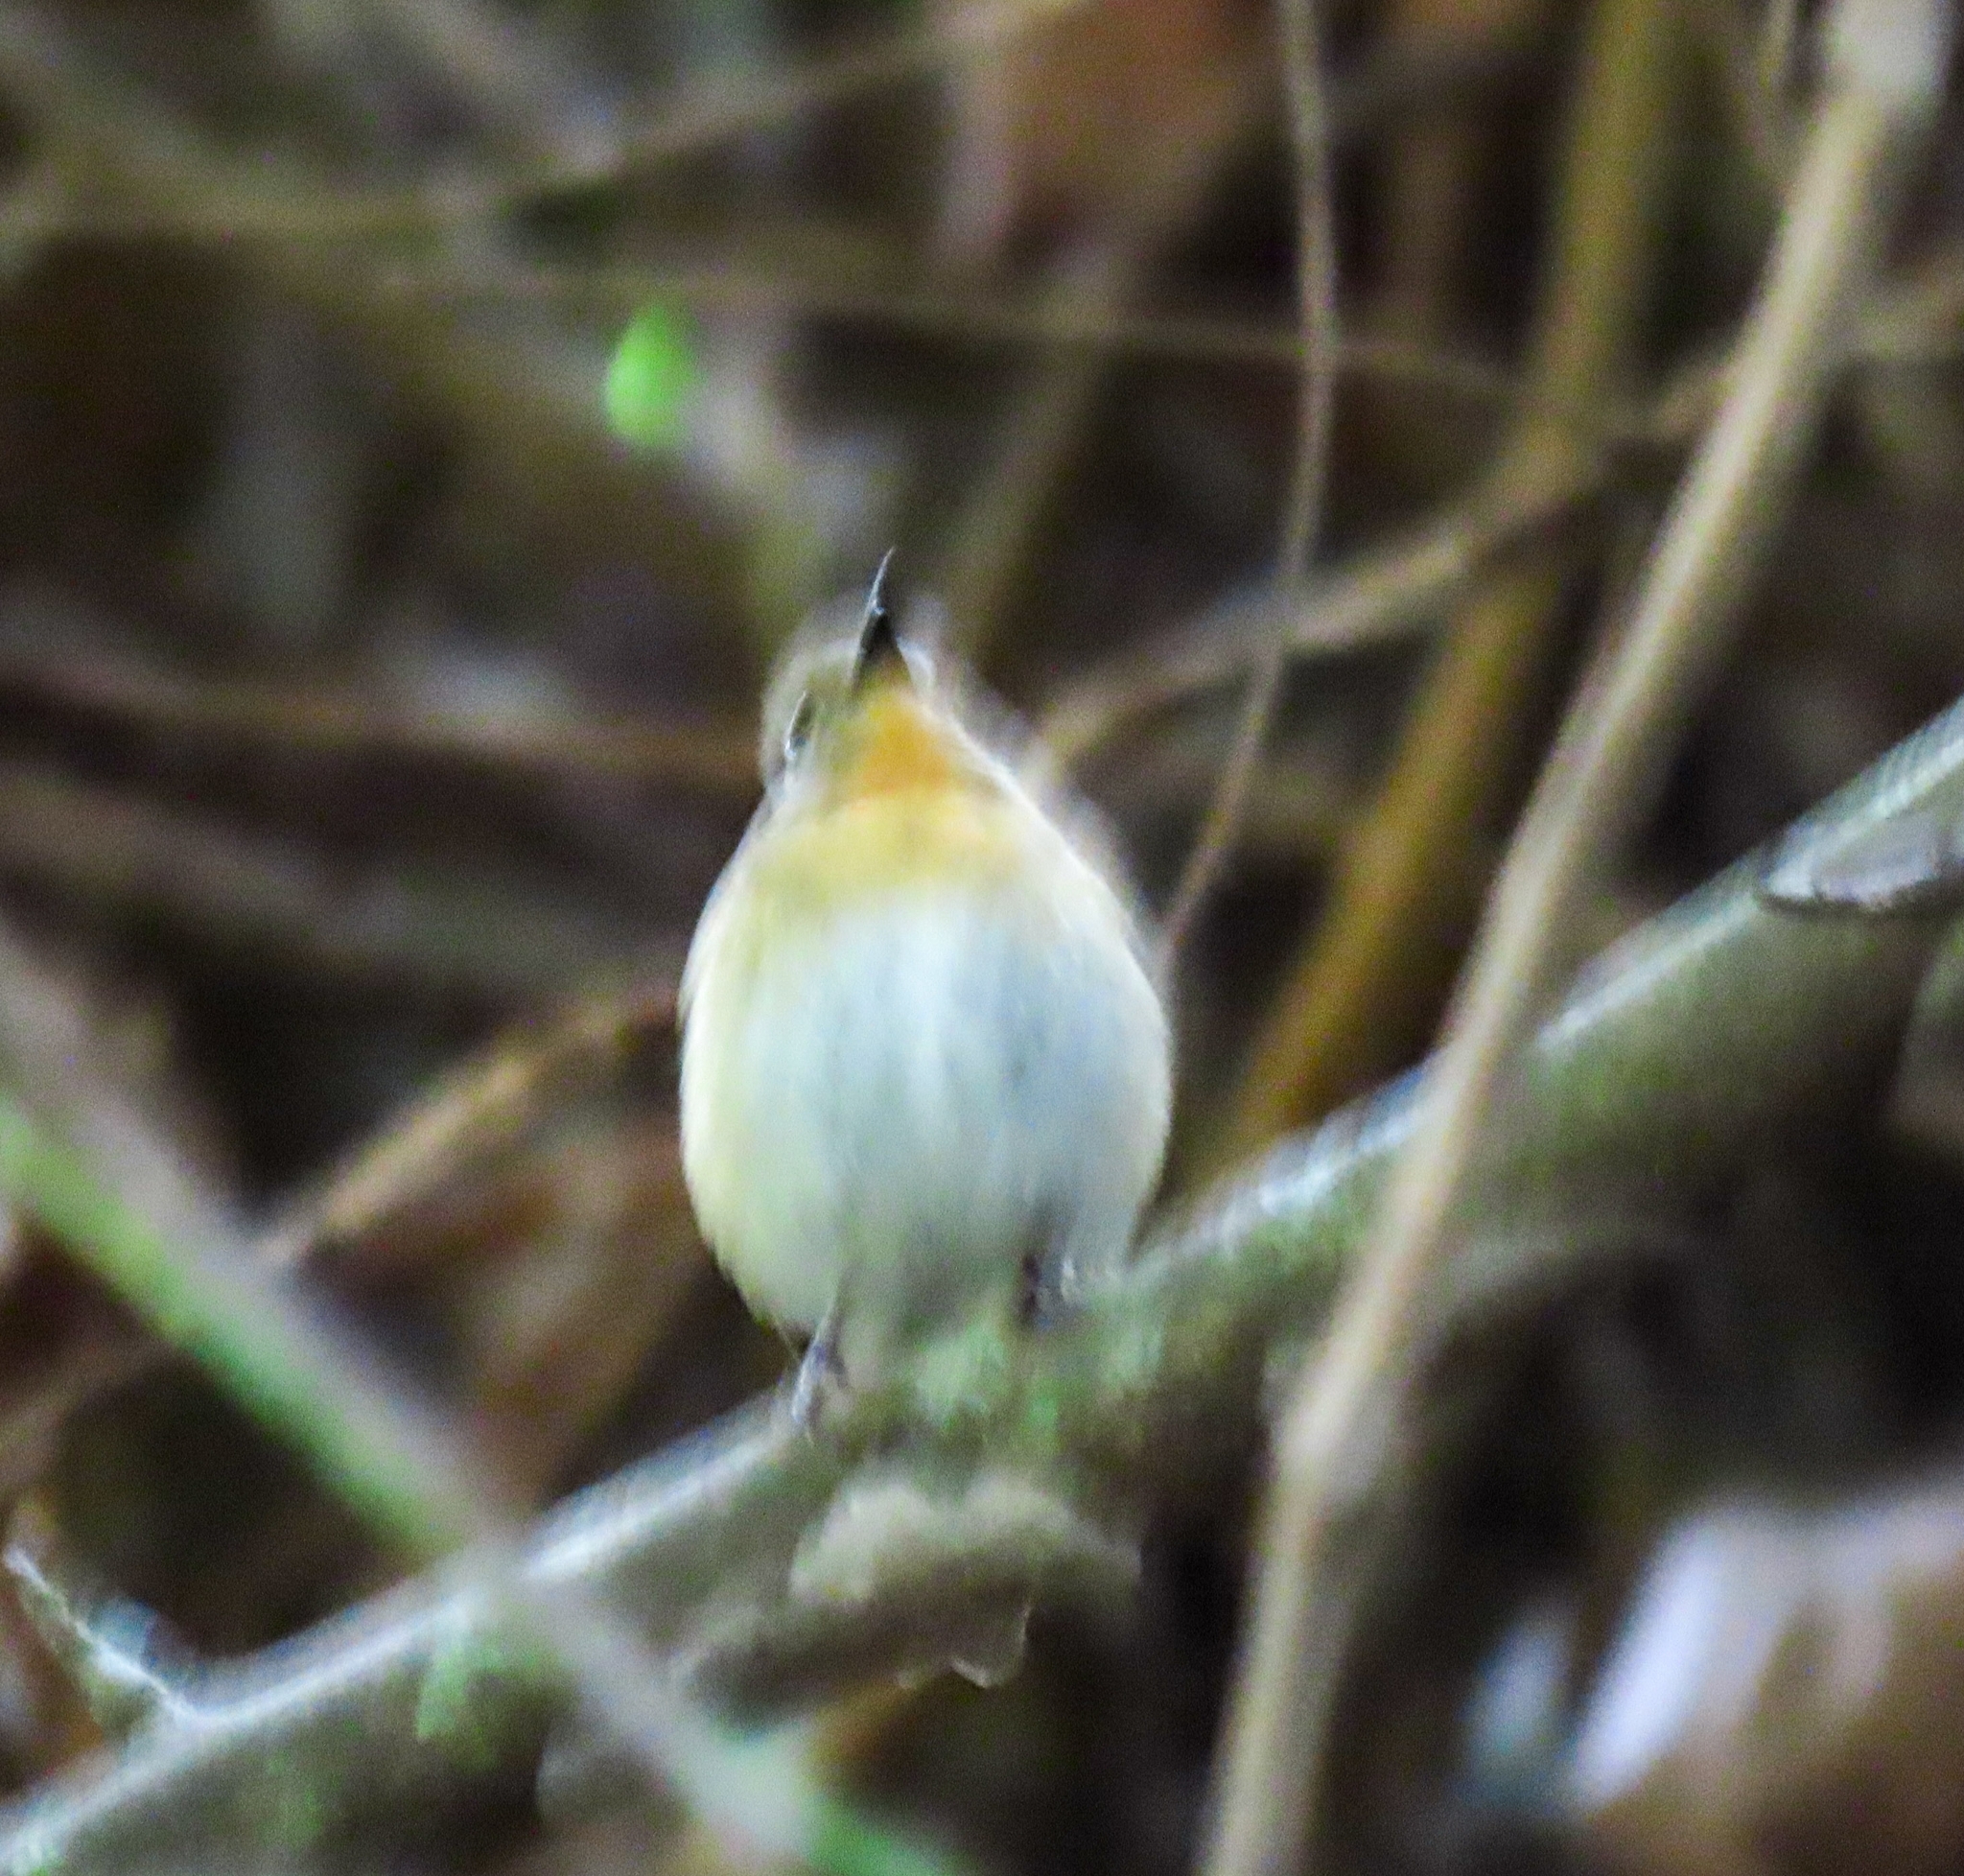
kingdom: Animalia
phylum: Chordata
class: Aves
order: Passeriformes
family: Muscicapidae
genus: Cyornis
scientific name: Cyornis tickelliae
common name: Tickell's blue flycatcher
